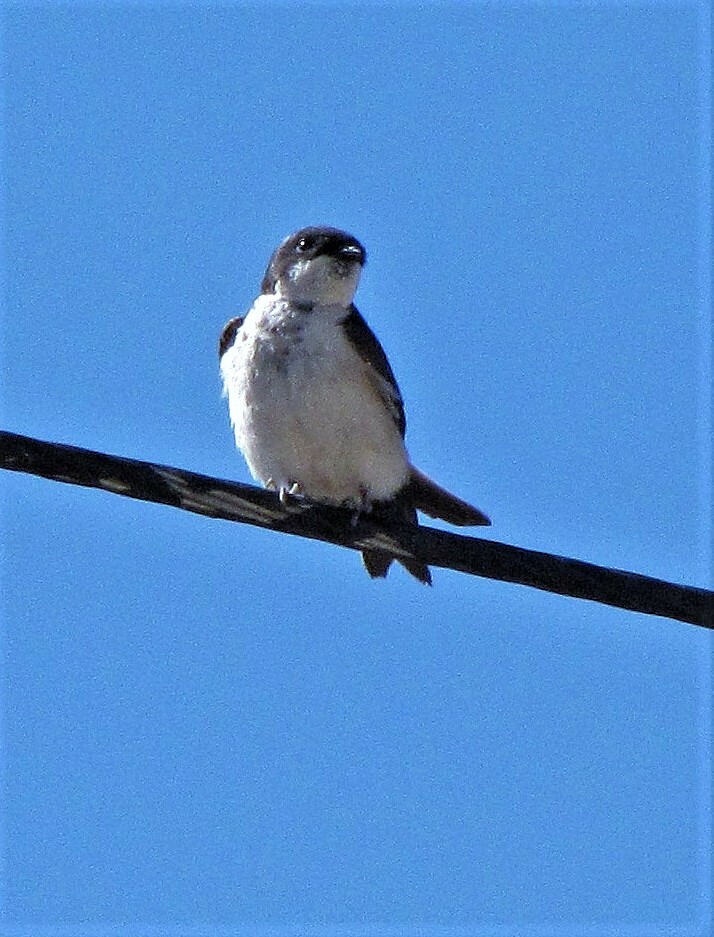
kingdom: Animalia
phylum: Chordata
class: Aves
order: Passeriformes
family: Hirundinidae
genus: Notiochelidon
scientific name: Notiochelidon cyanoleuca
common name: Blue-and-white swallow
